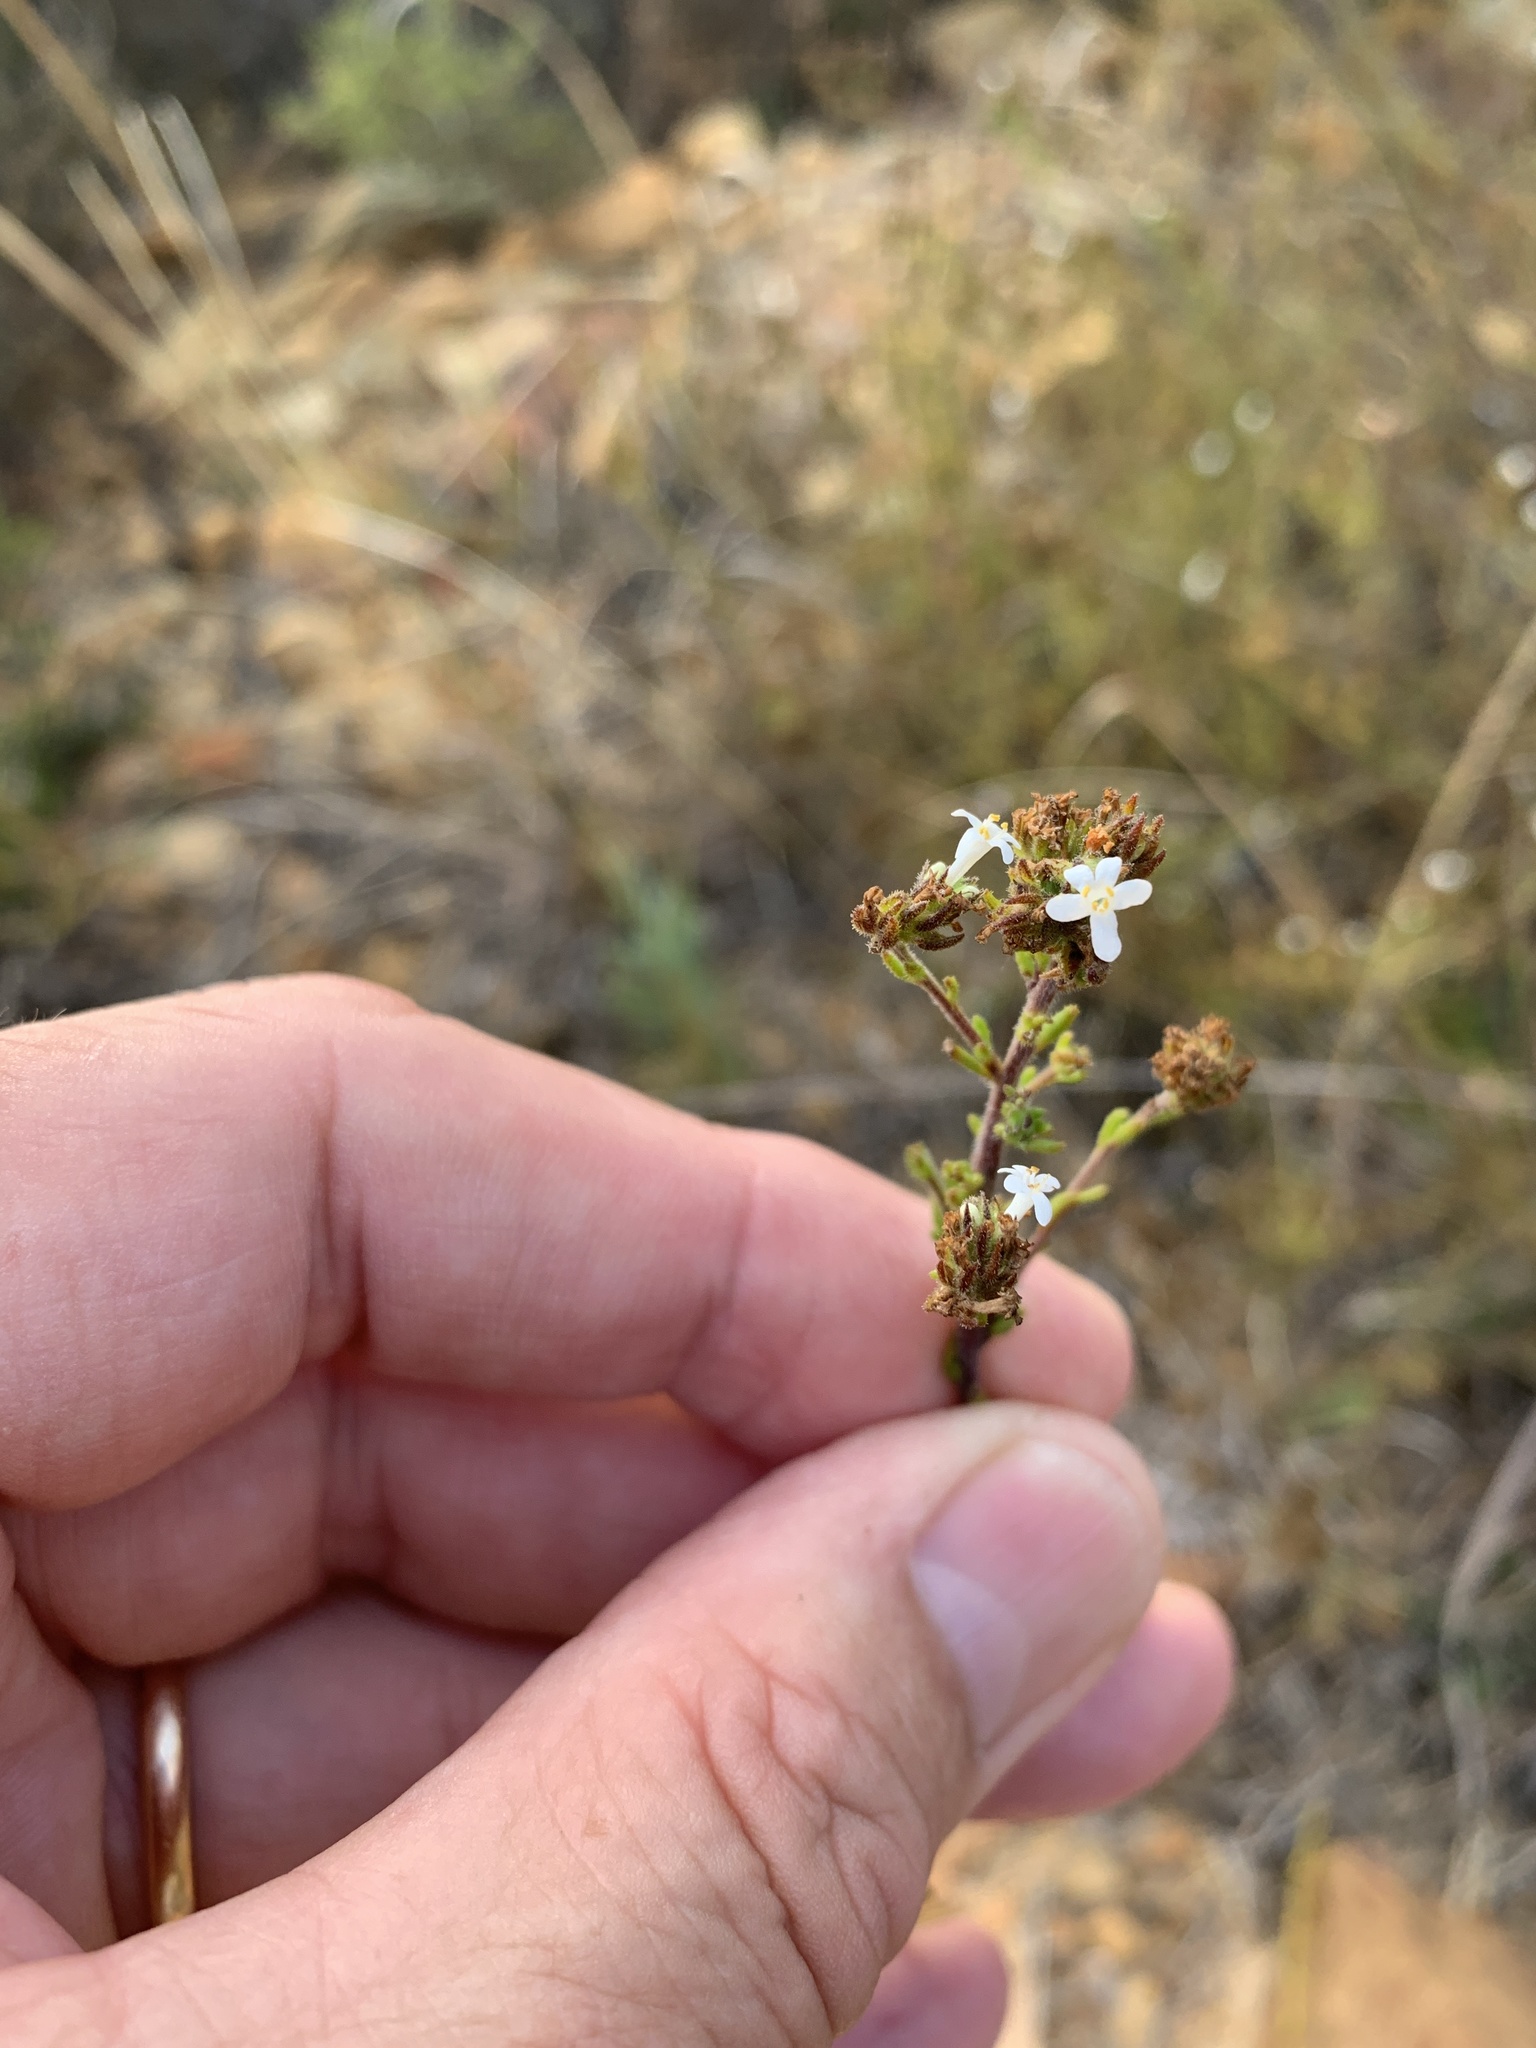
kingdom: Plantae
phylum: Tracheophyta
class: Magnoliopsida
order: Lamiales
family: Scrophulariaceae
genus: Selago
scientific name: Selago scabrida
